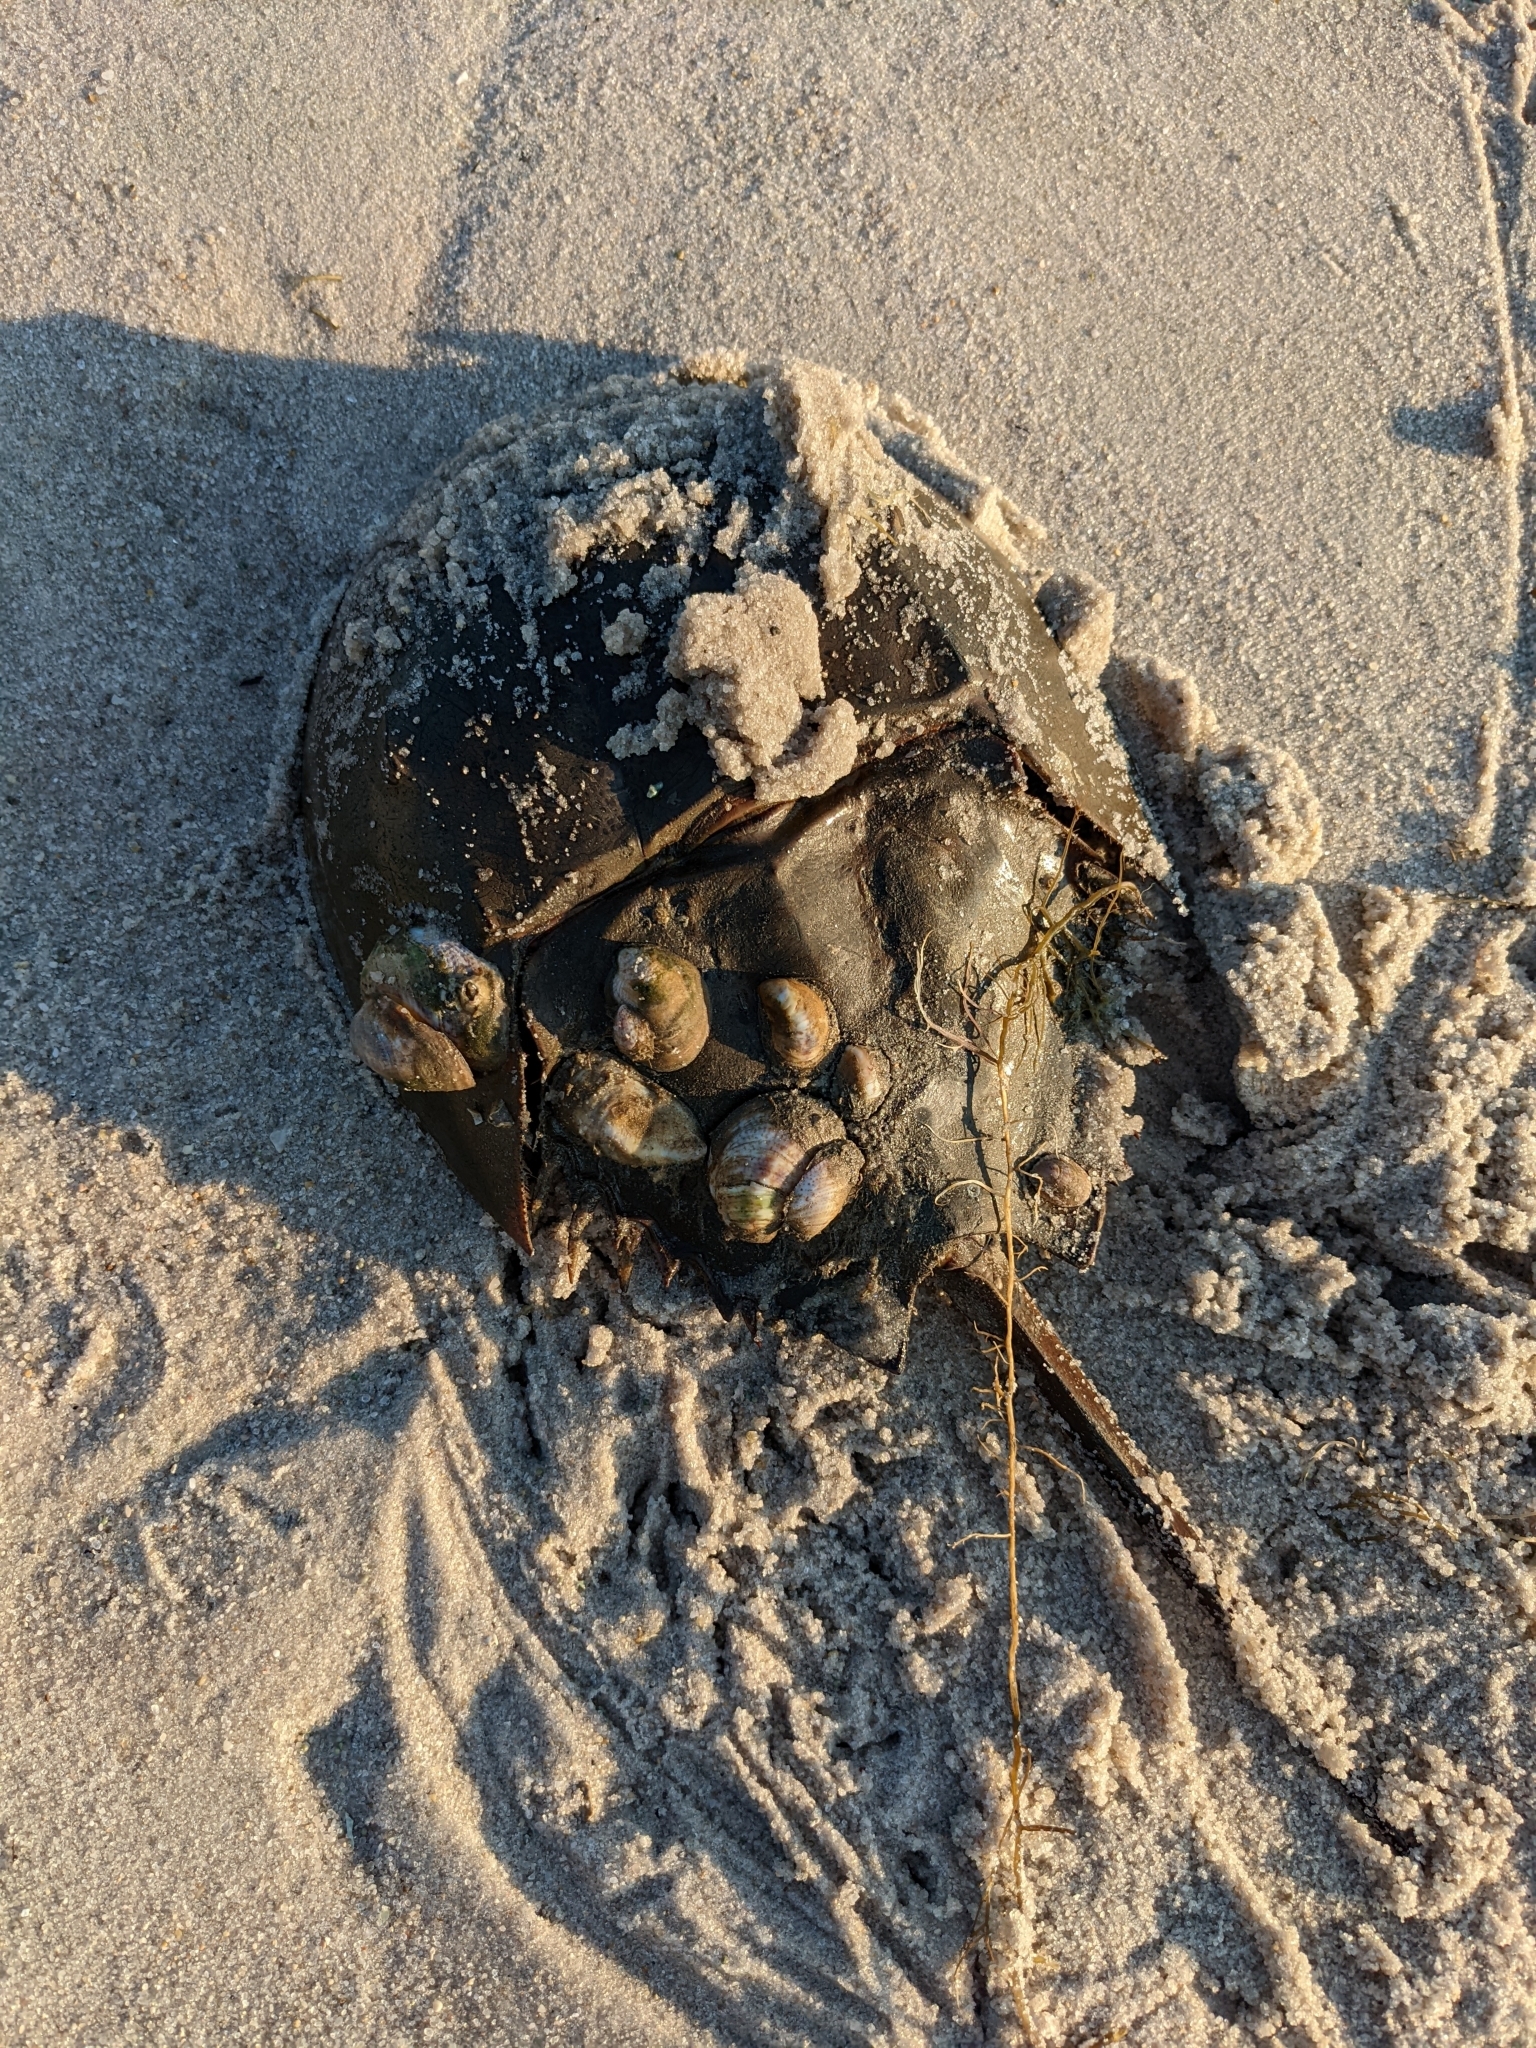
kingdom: Animalia
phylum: Arthropoda
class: Merostomata
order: Xiphosurida
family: Limulidae
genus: Limulus
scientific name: Limulus polyphemus
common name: Horseshoe crab
